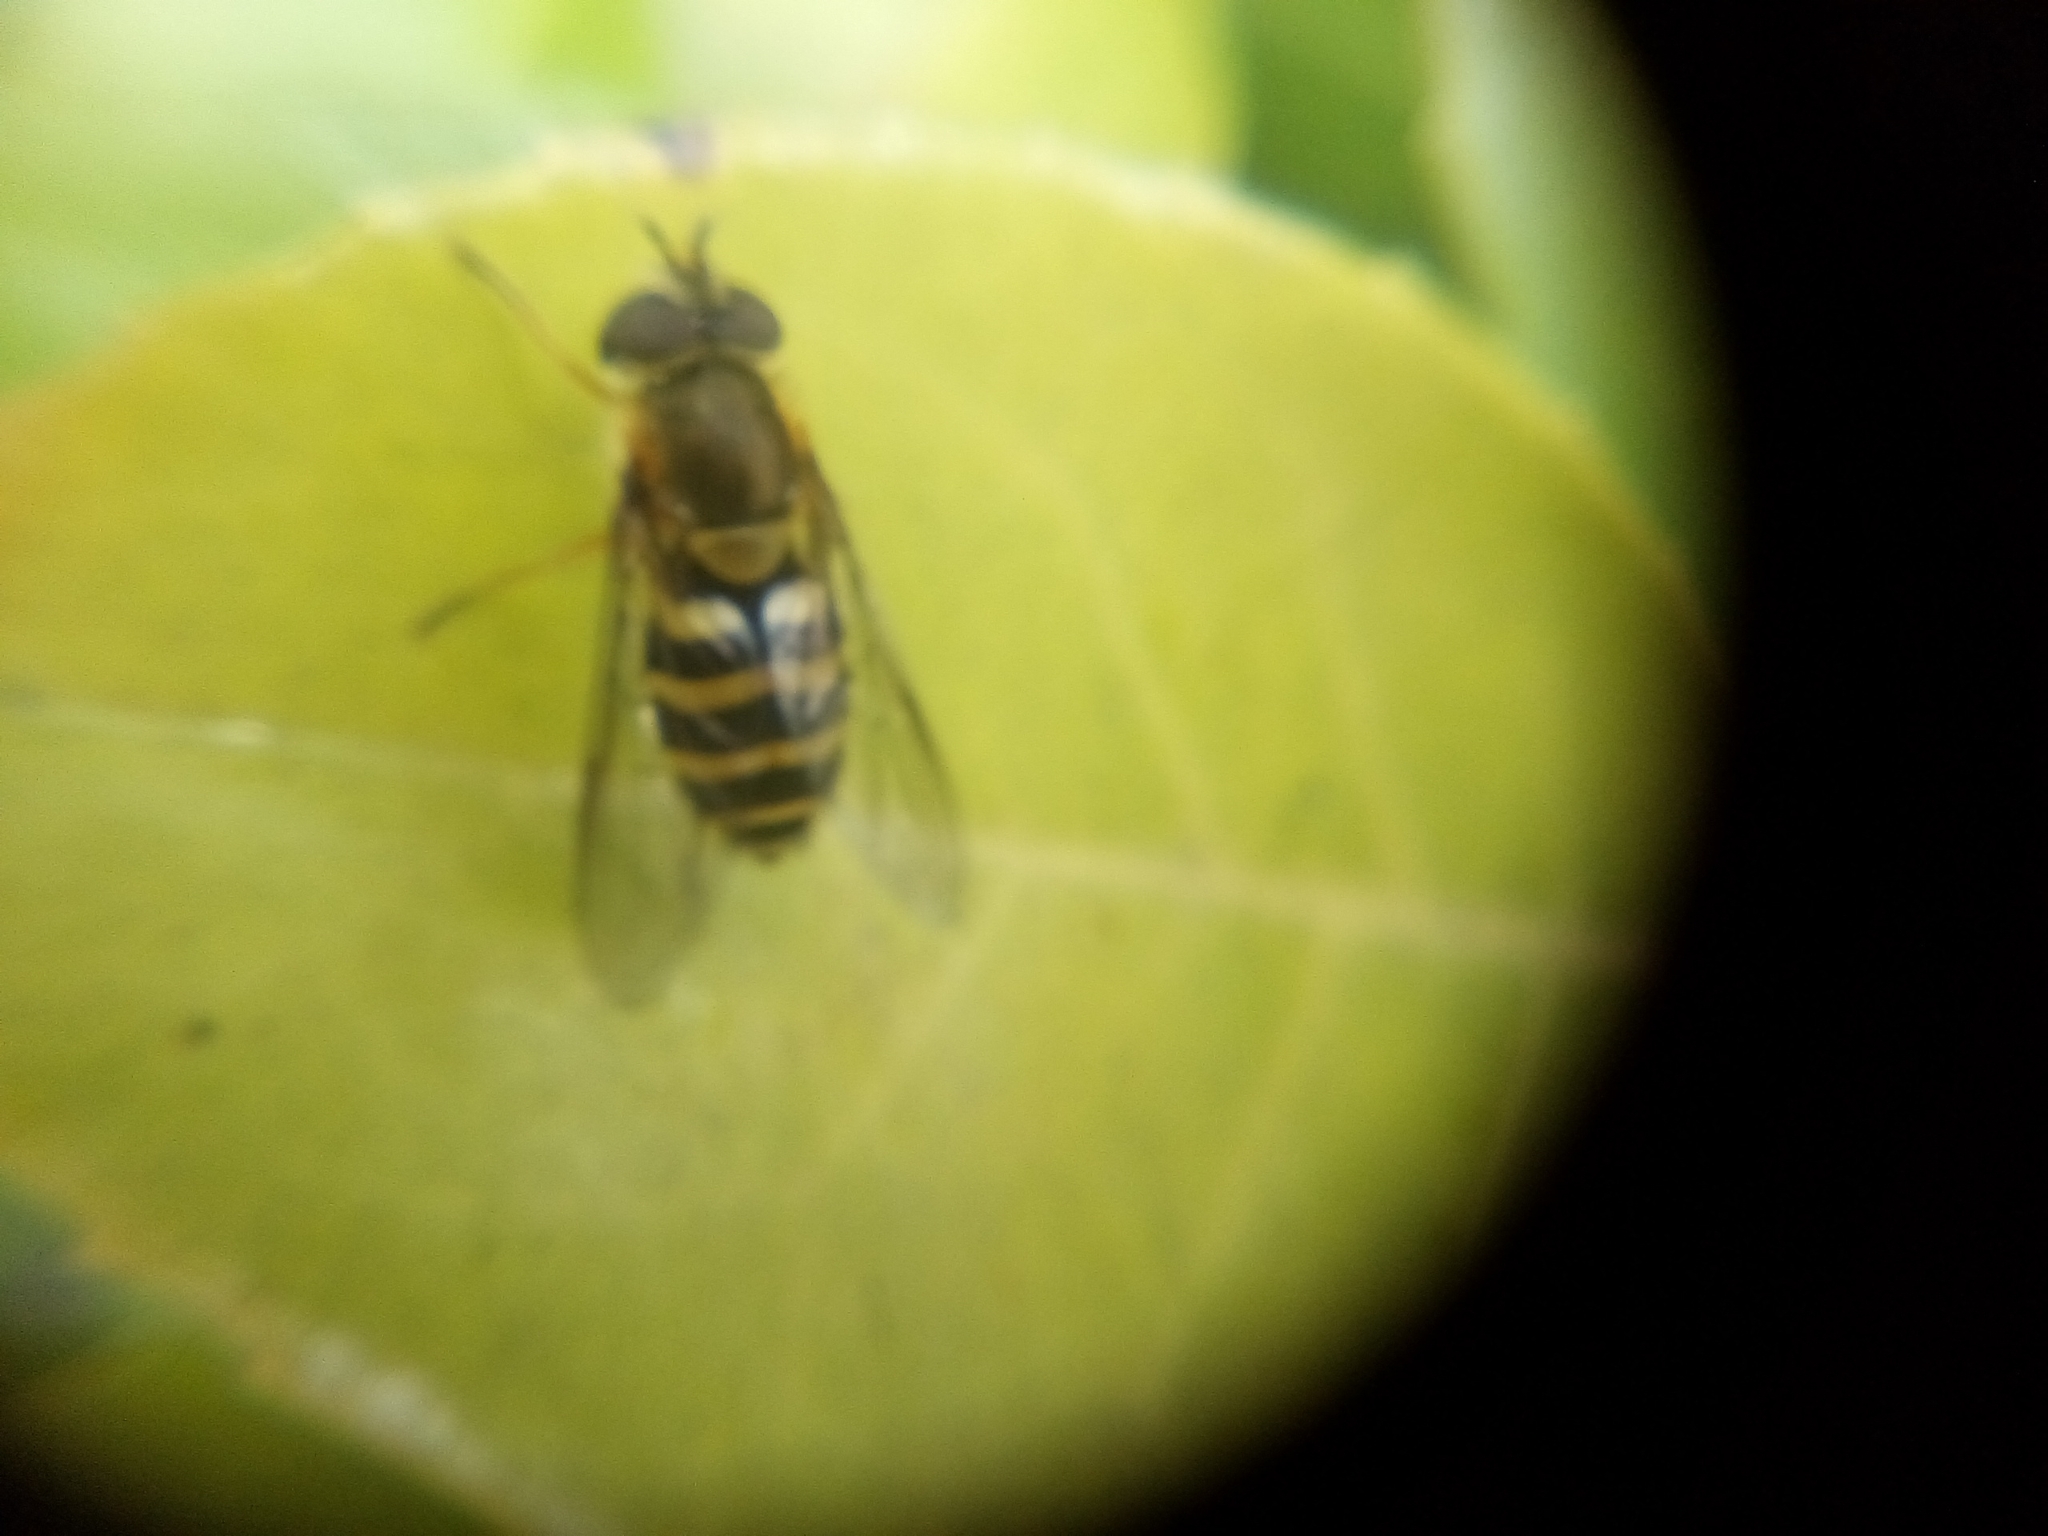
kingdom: Animalia
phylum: Arthropoda
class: Insecta
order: Diptera
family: Syrphidae
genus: Syrphus
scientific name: Syrphus
